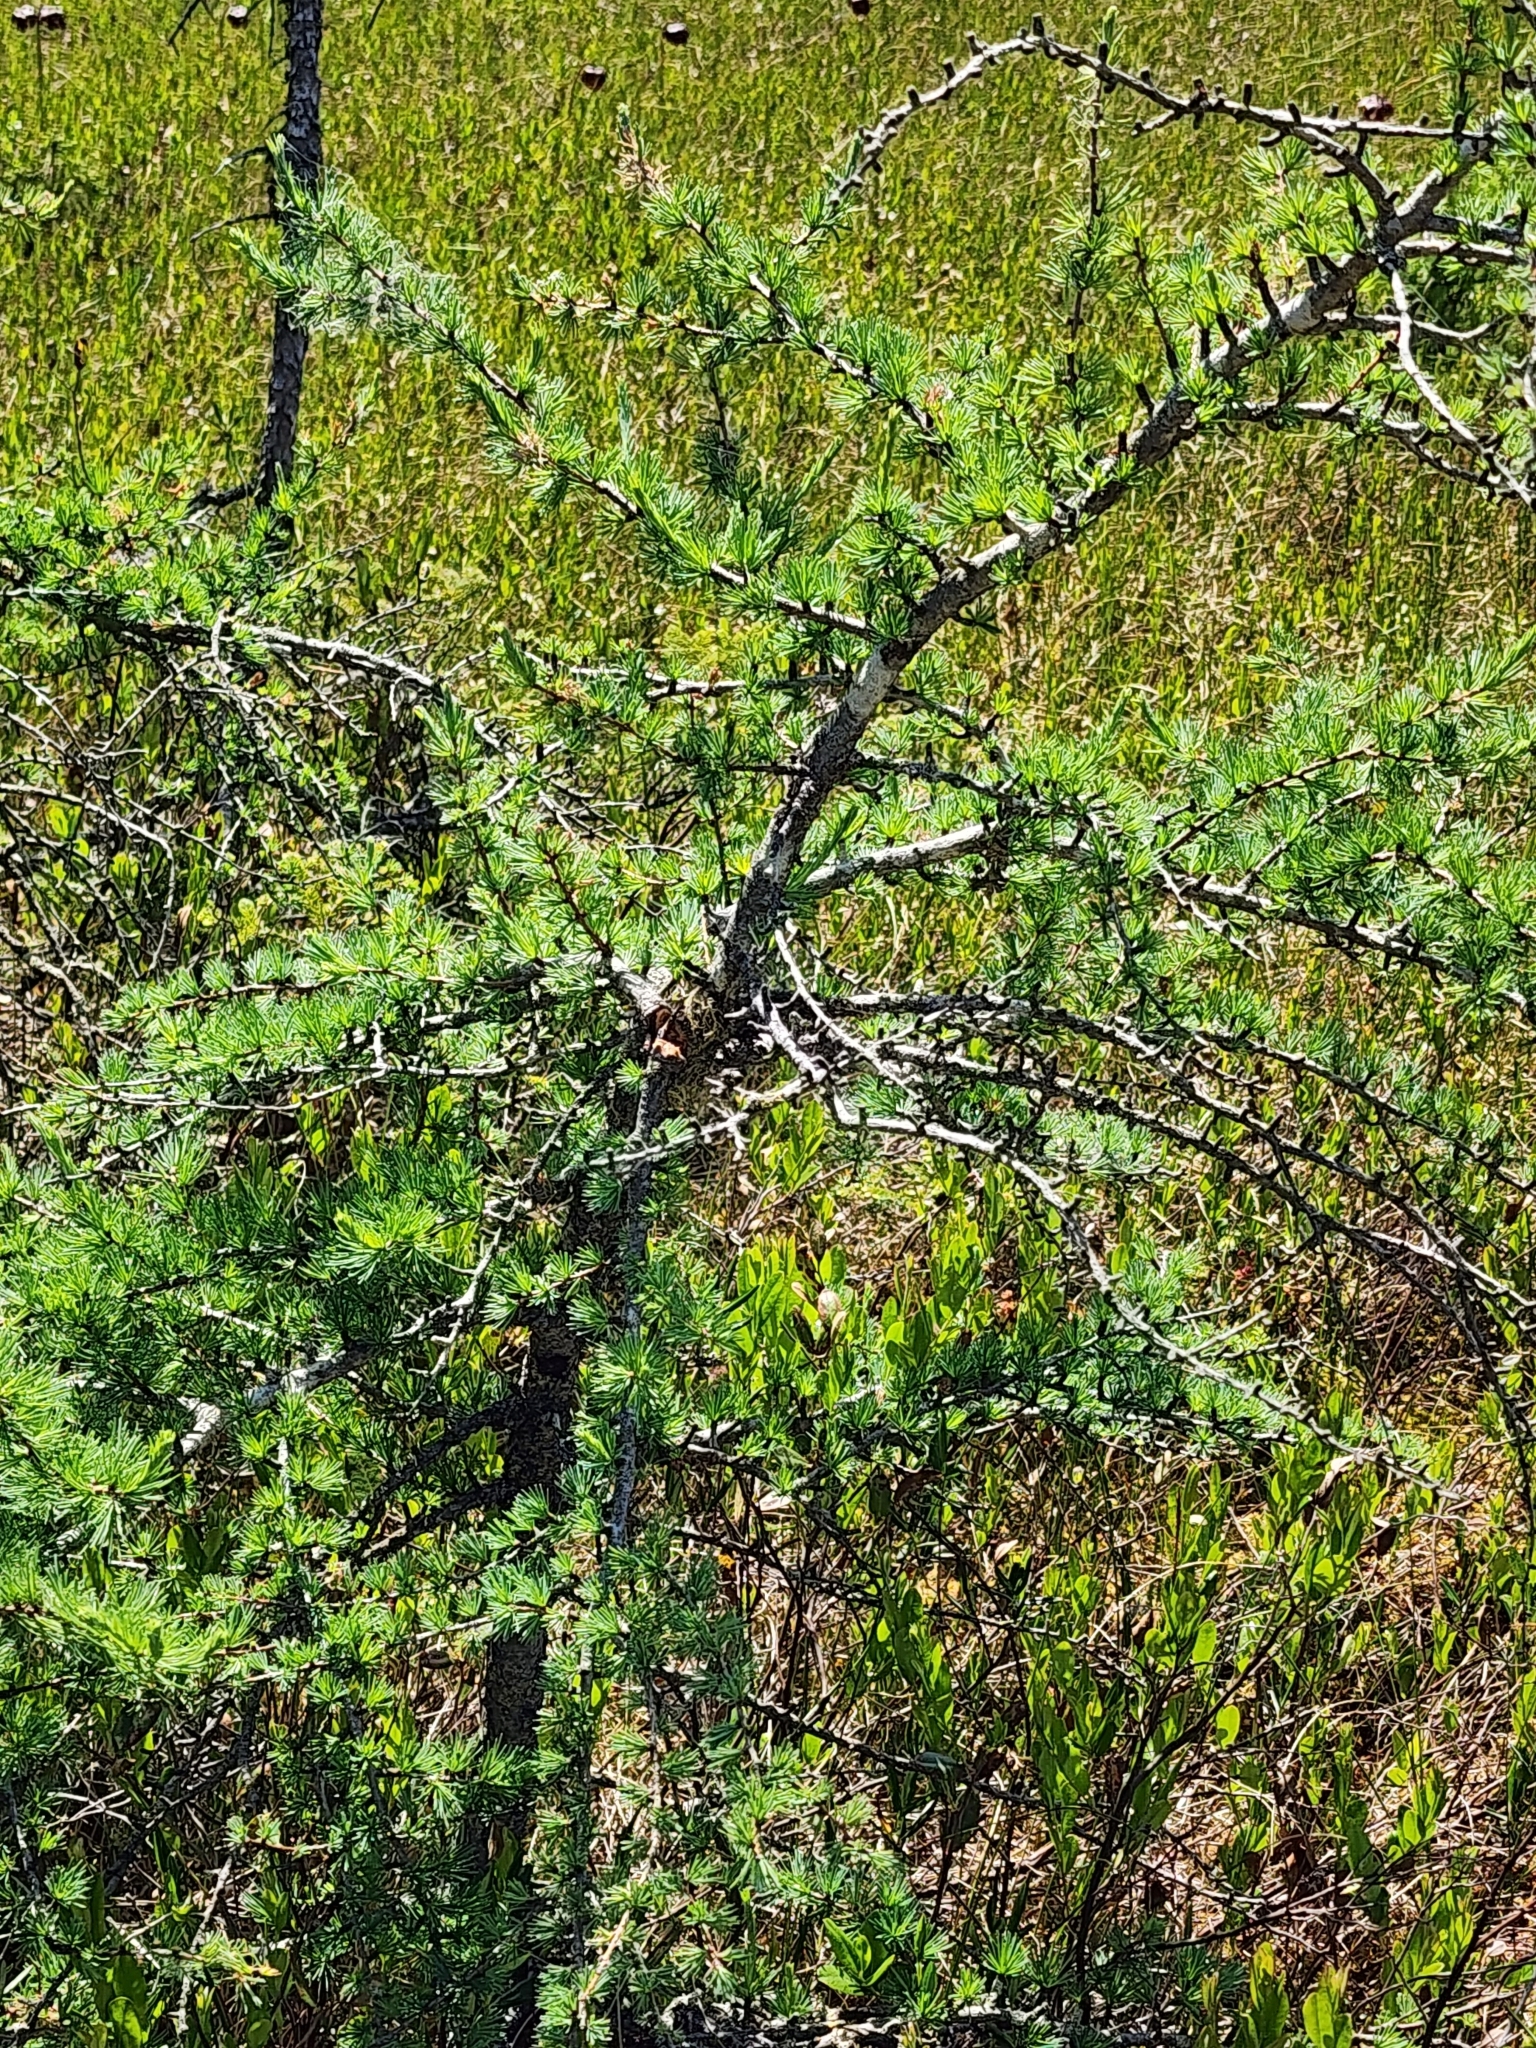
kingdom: Plantae
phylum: Tracheophyta
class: Pinopsida
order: Pinales
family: Pinaceae
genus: Larix
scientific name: Larix laricina
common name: American larch
